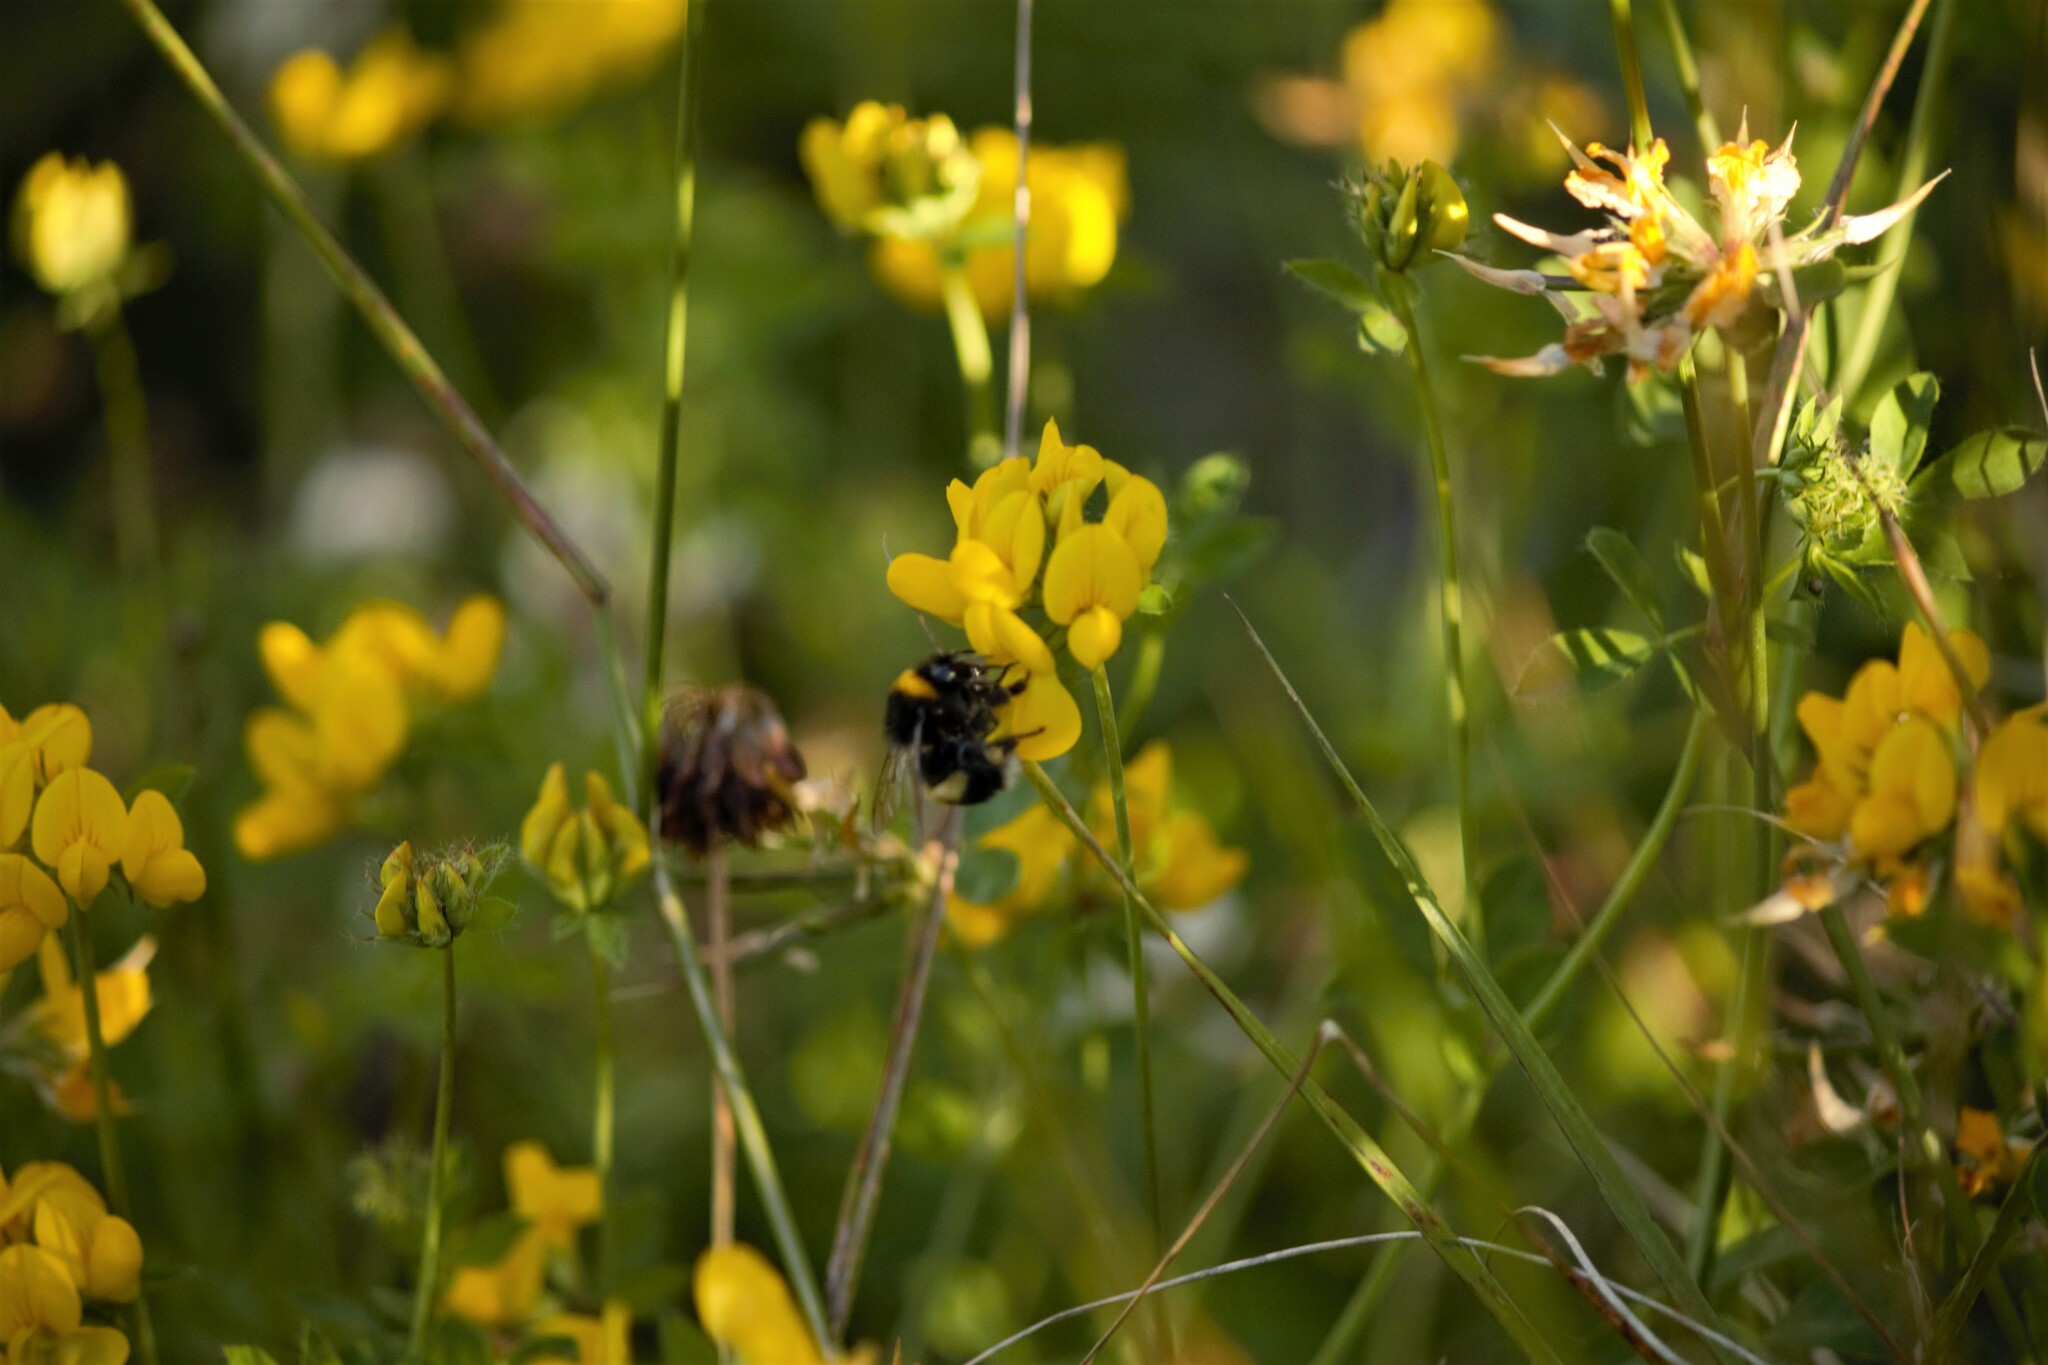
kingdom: Animalia
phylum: Arthropoda
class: Insecta
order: Hymenoptera
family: Apidae
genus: Bombus
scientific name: Bombus terrestris
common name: Buff-tailed bumblebee
